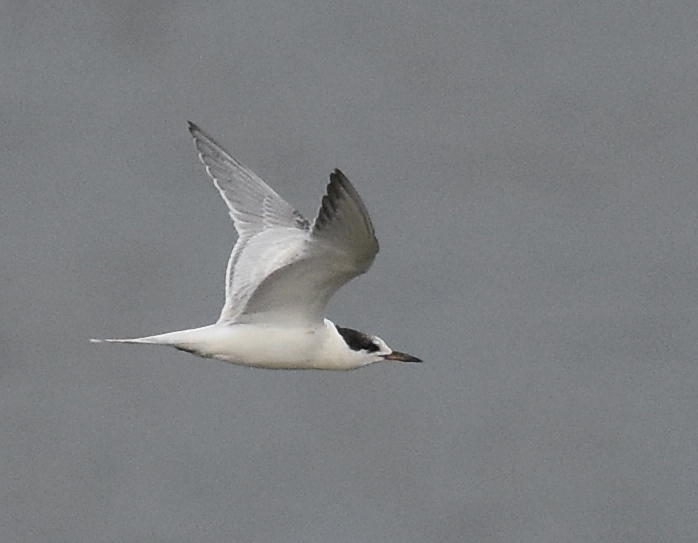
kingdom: Animalia
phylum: Chordata
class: Aves
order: Charadriiformes
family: Laridae
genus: Sterna
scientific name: Sterna hirundo
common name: Common tern
